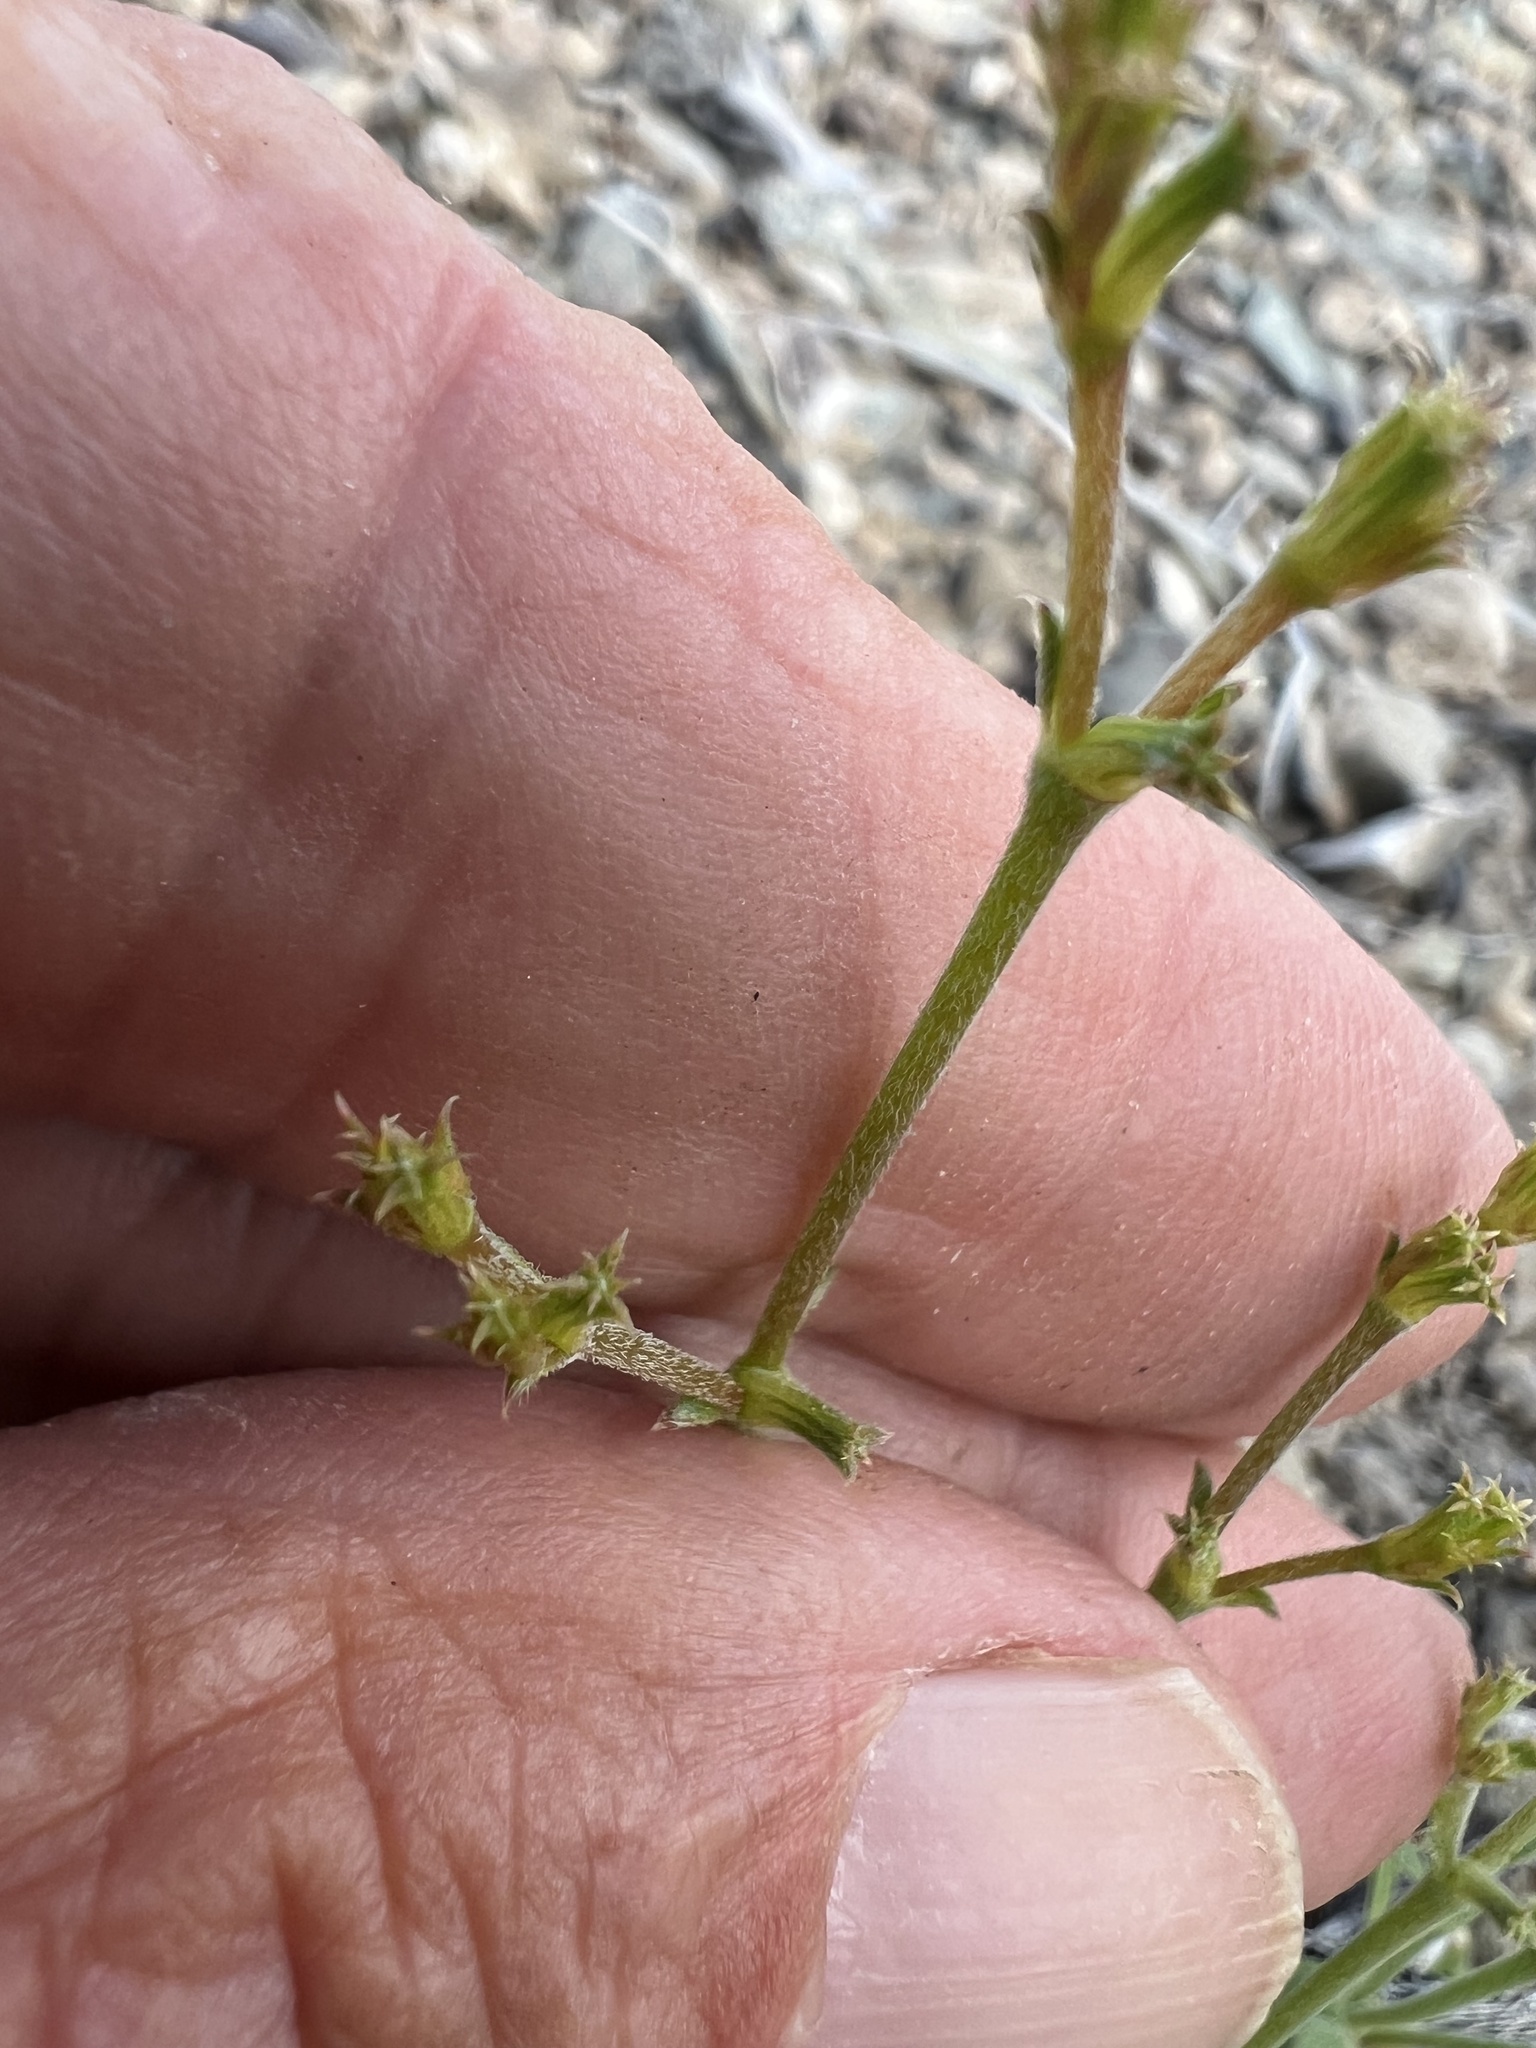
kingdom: Plantae
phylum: Tracheophyta
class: Magnoliopsida
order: Caryophyllales
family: Polygonaceae
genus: Chorizanthe
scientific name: Chorizanthe brevicornu
